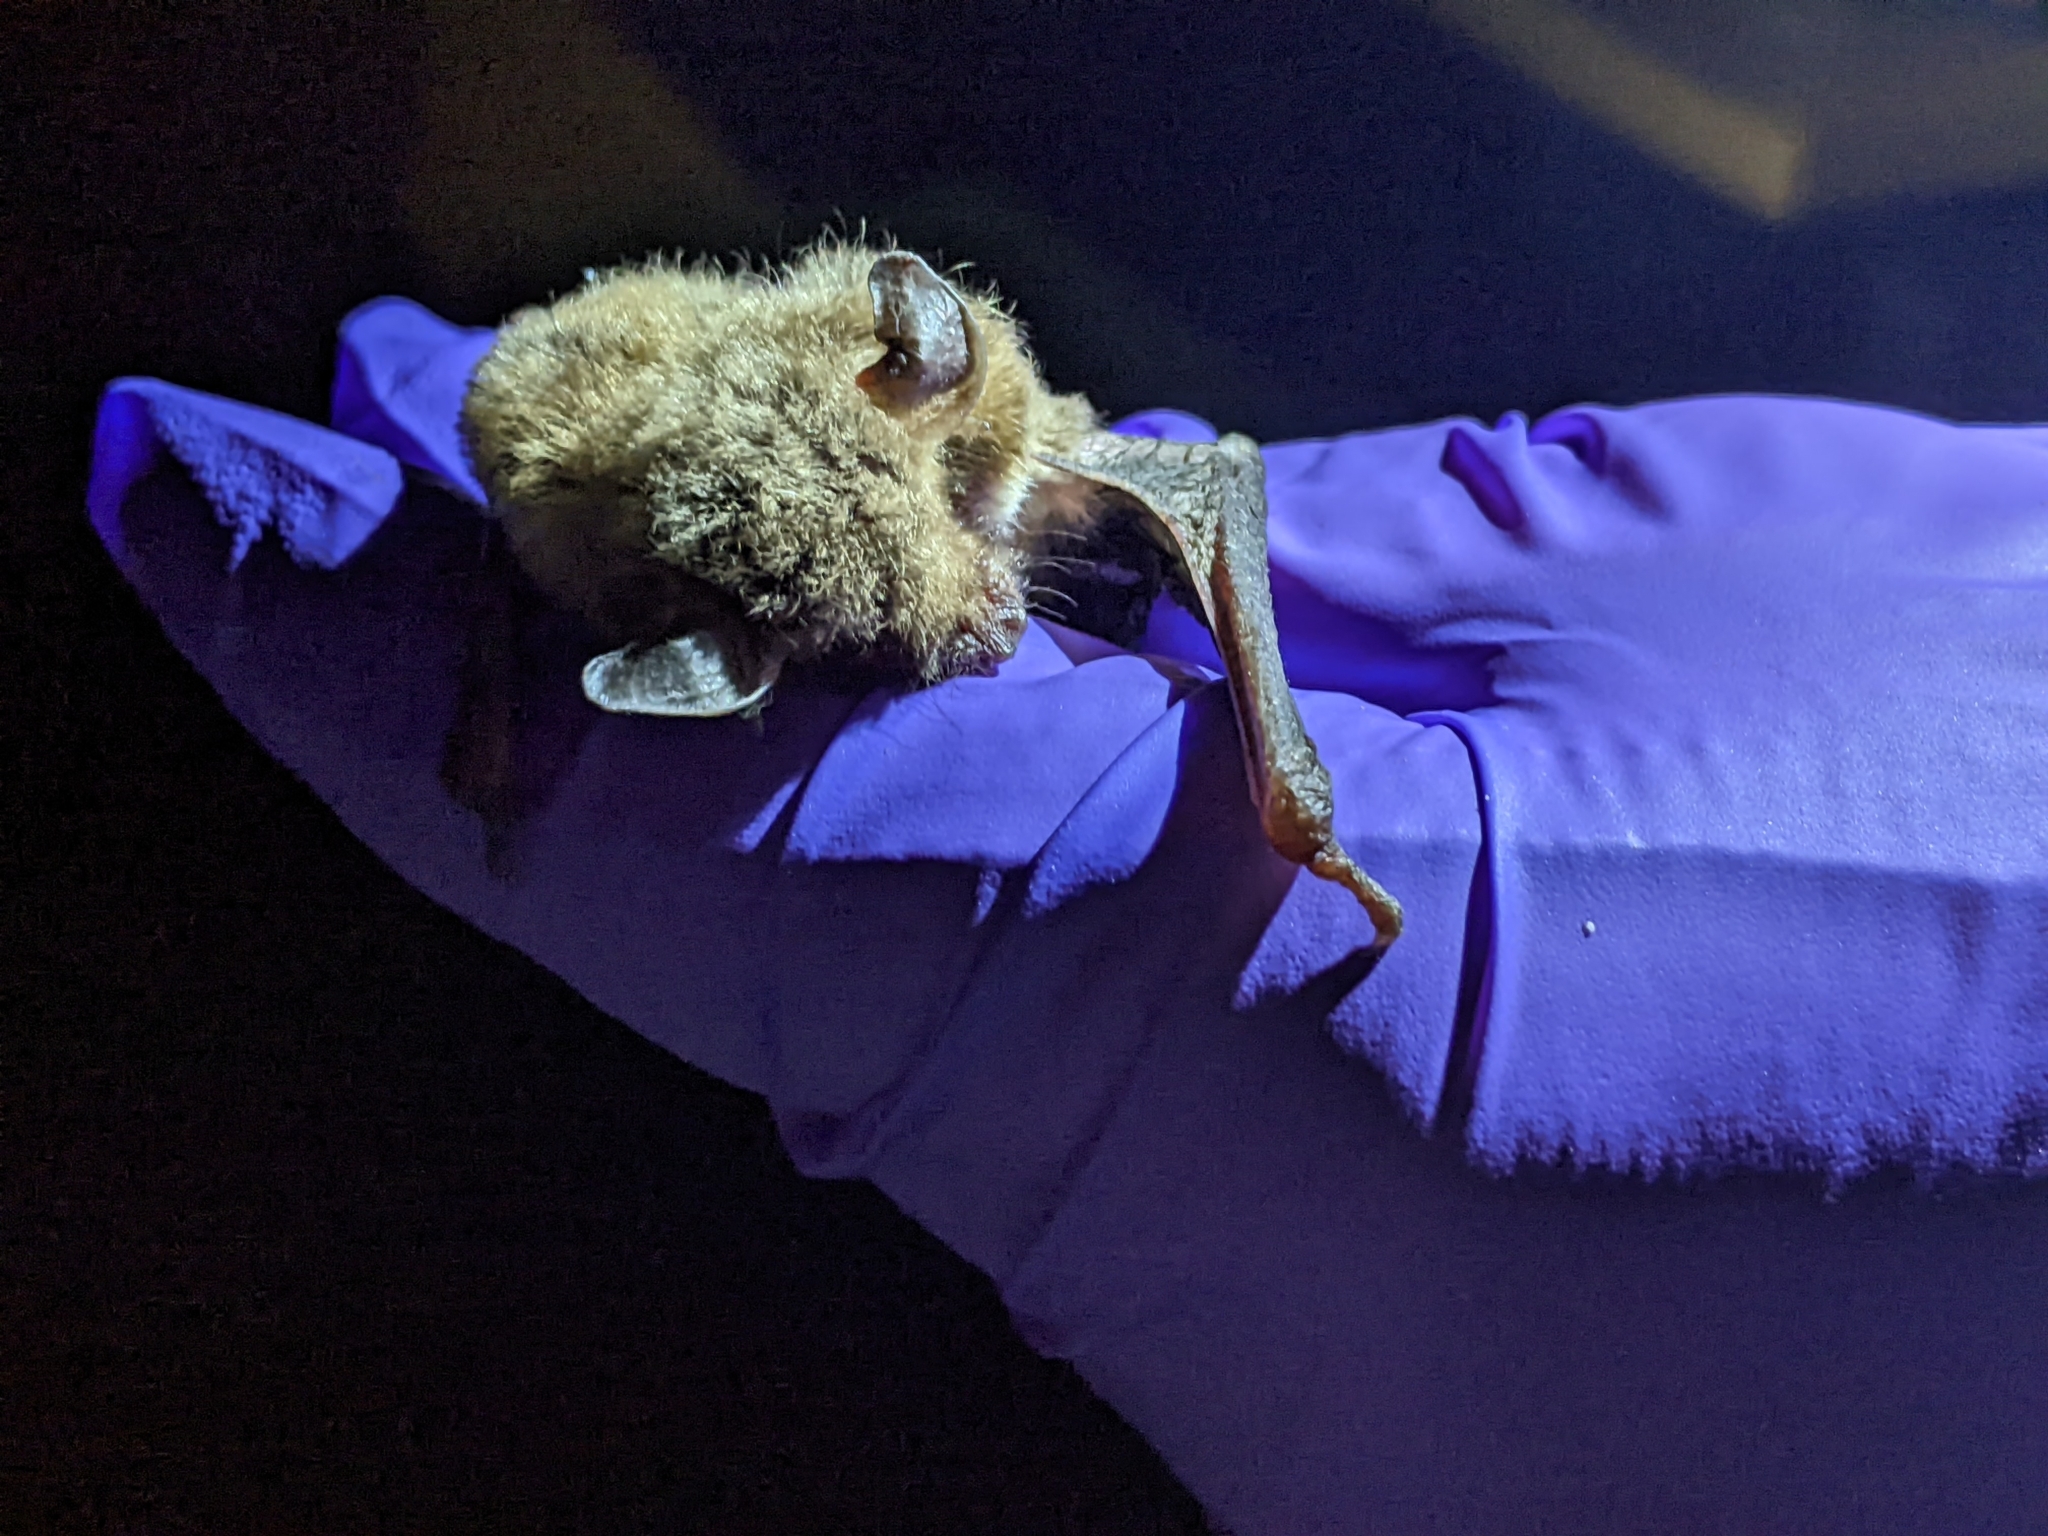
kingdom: Animalia
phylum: Chordata
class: Mammalia
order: Chiroptera
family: Vespertilionidae
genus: Myotis
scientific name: Myotis velifer
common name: Cave myotis
